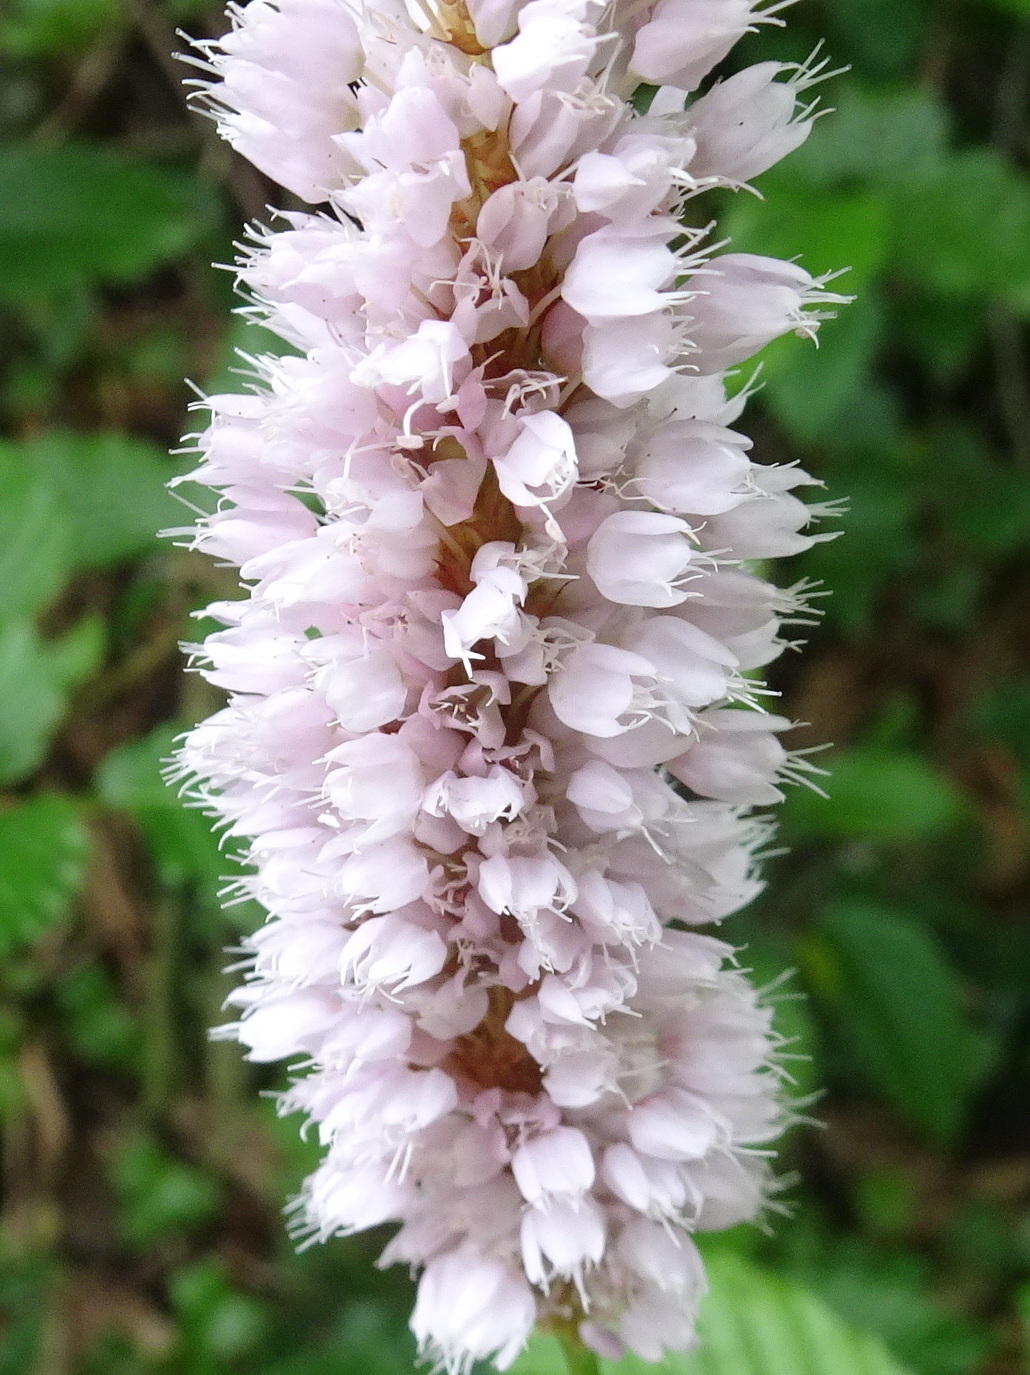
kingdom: Plantae
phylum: Tracheophyta
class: Magnoliopsida
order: Caryophyllales
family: Polygonaceae
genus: Bistorta
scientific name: Bistorta officinalis
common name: Common bistort
